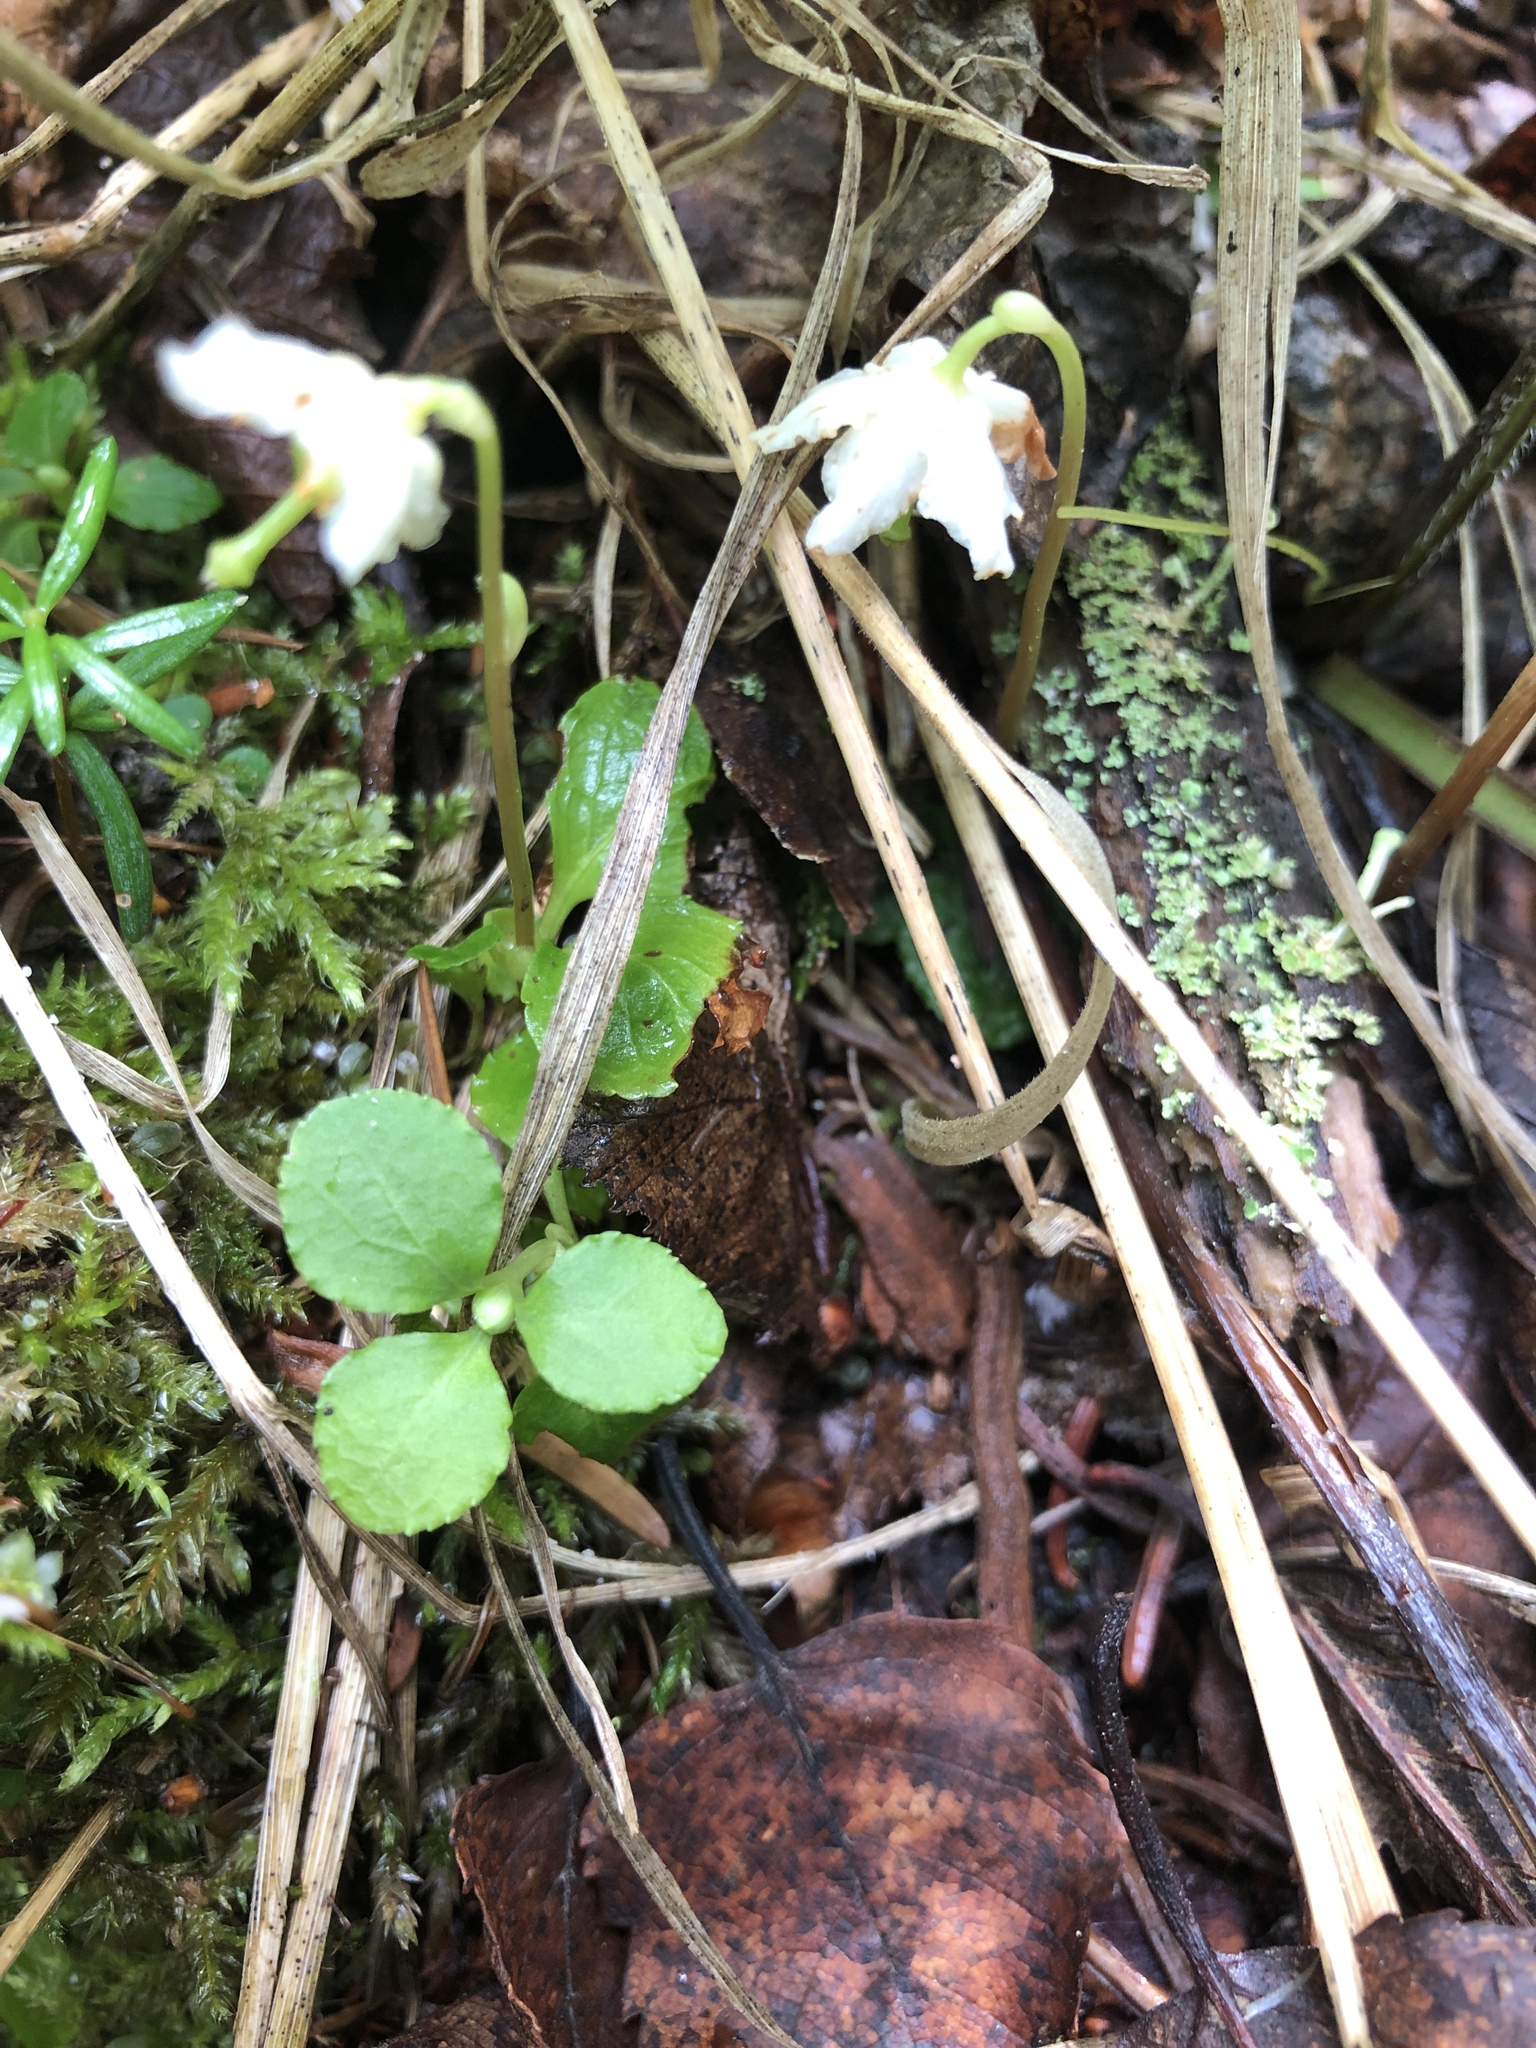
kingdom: Plantae
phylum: Tracheophyta
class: Magnoliopsida
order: Ericales
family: Ericaceae
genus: Moneses
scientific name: Moneses uniflora
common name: One-flowered wintergreen
